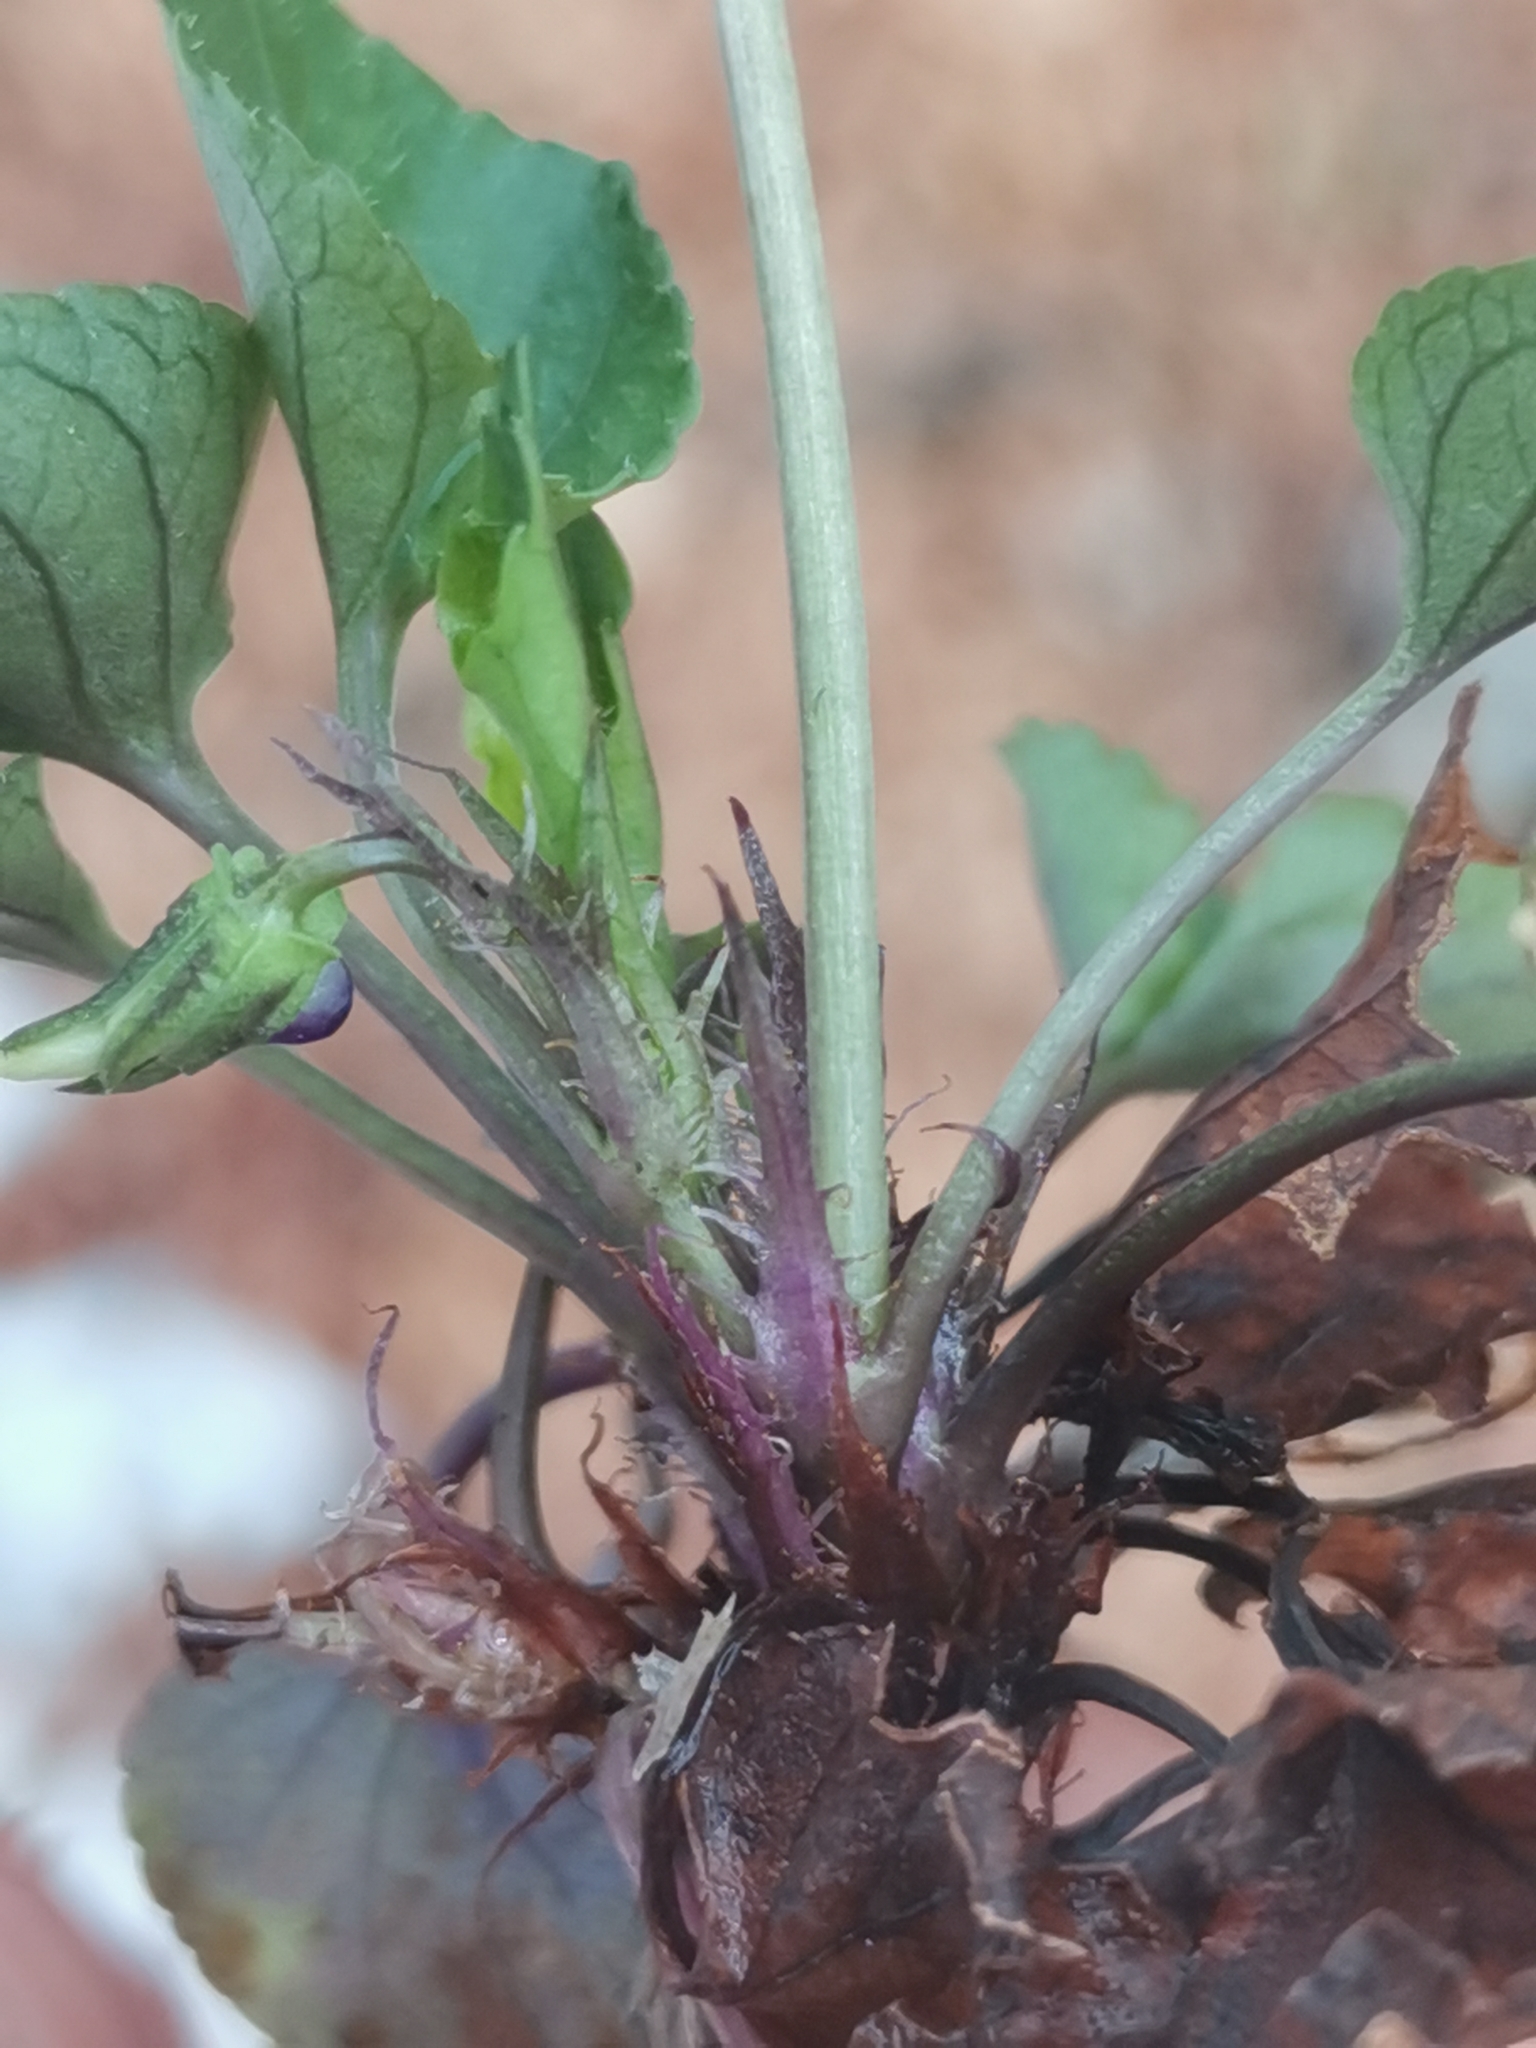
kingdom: Plantae
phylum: Tracheophyta
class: Magnoliopsida
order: Malpighiales
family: Violaceae
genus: Viola
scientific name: Viola reichenbachiana
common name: Early dog-violet
